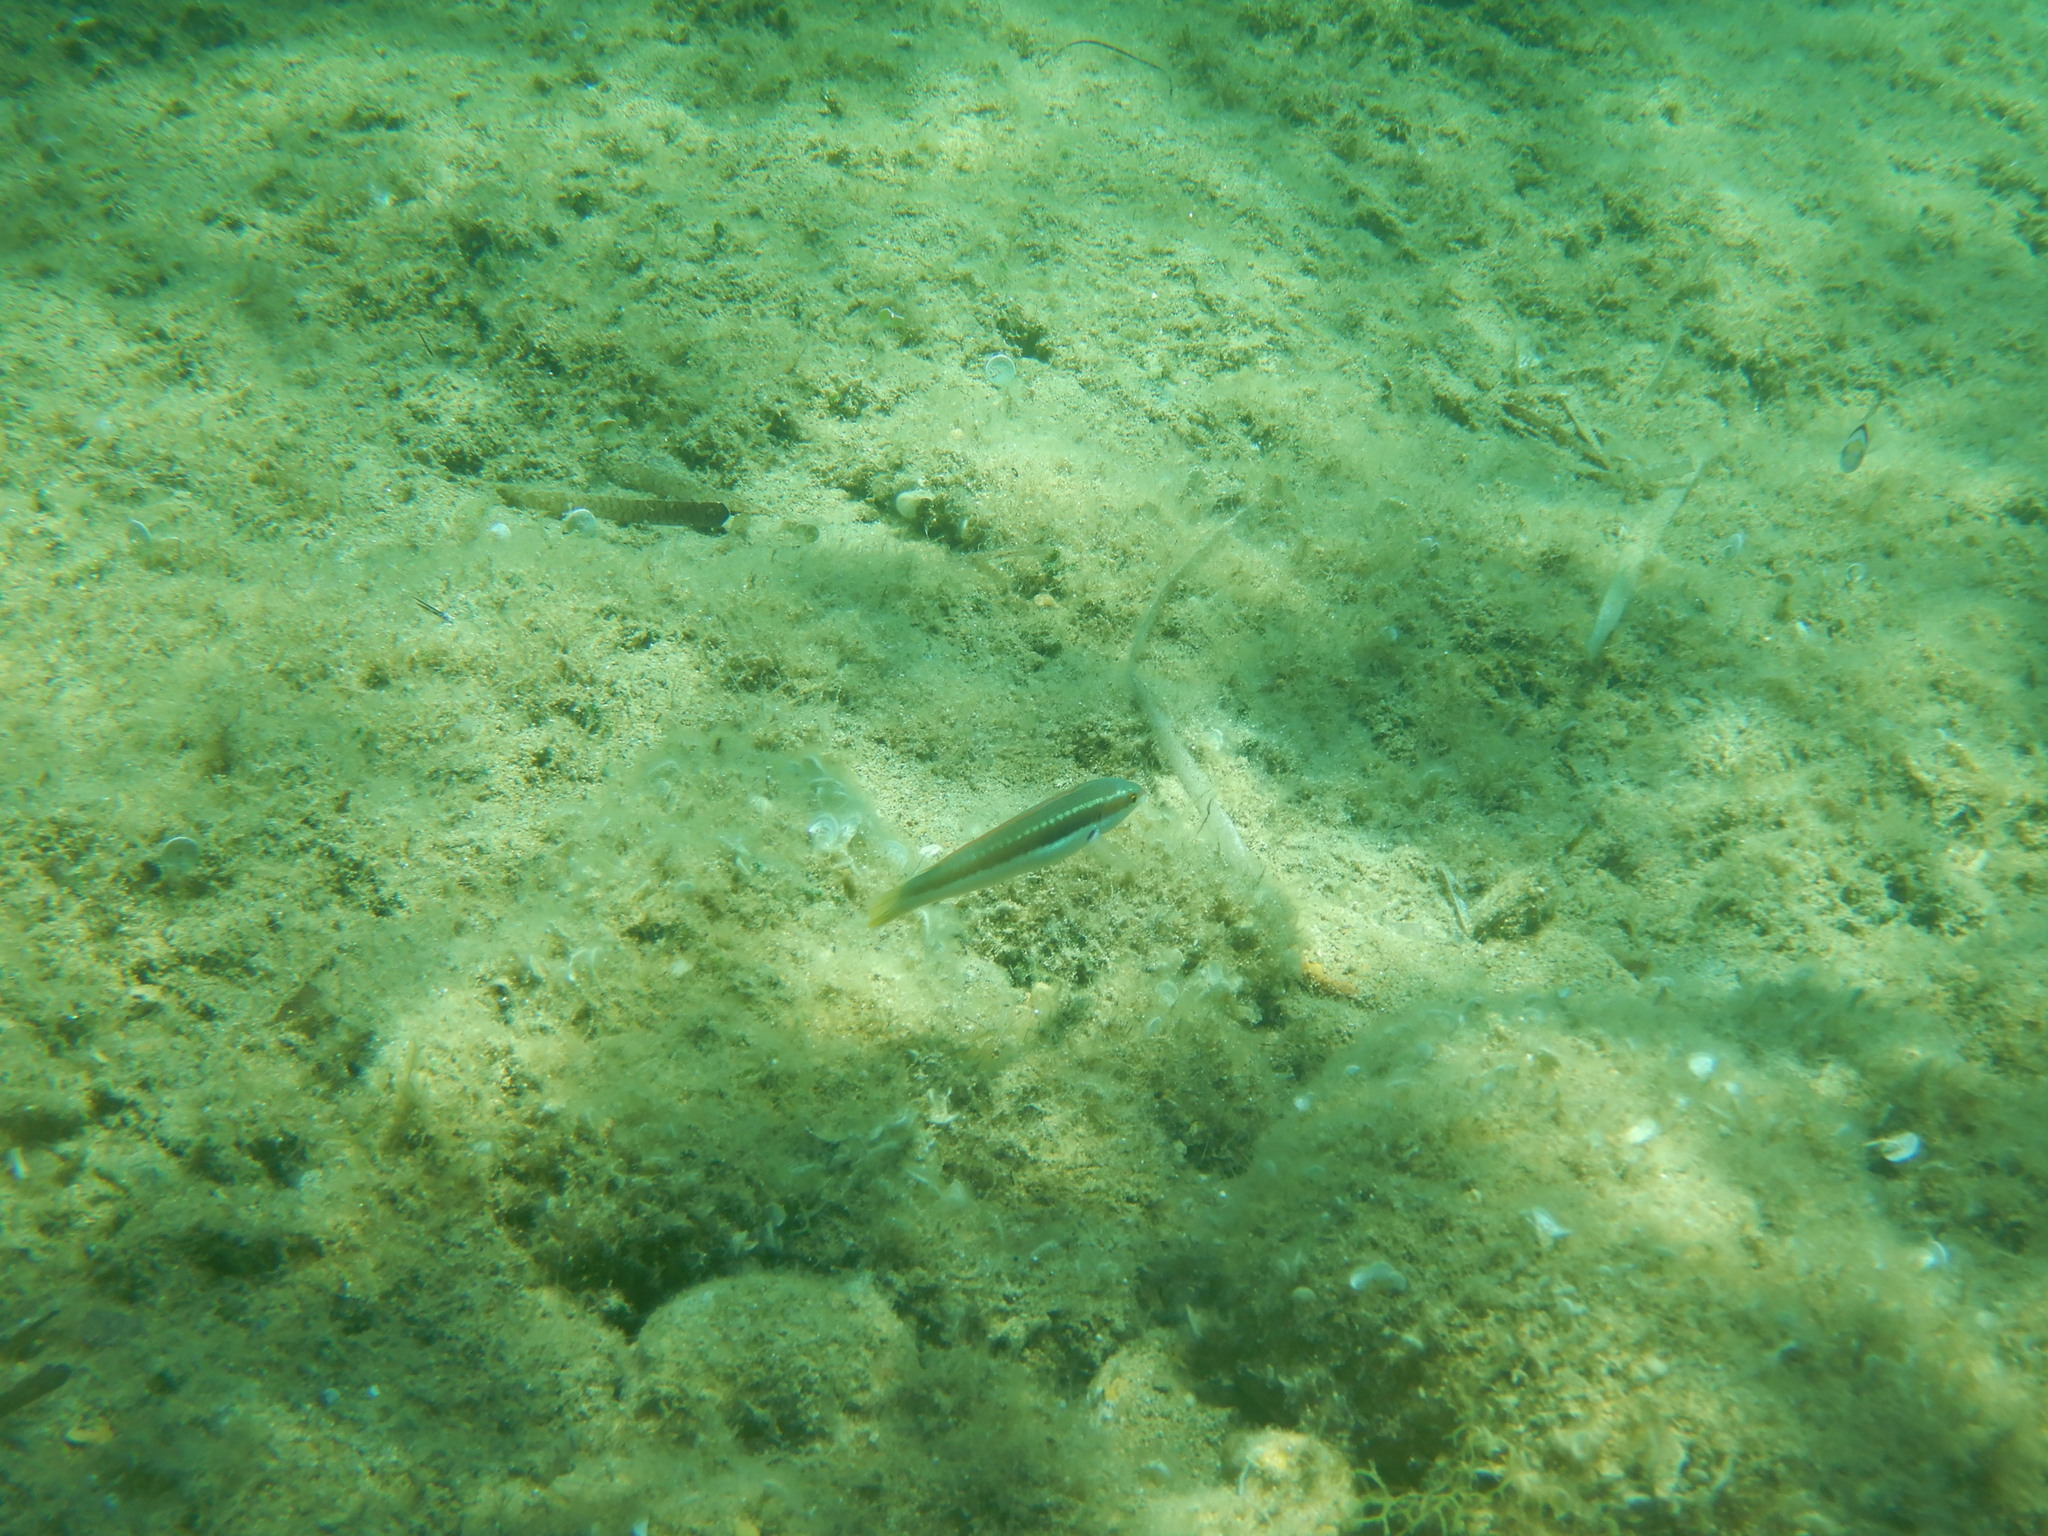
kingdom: Animalia
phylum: Chordata
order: Perciformes
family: Labridae
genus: Coris
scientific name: Coris julis
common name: Rainbow wrasse
